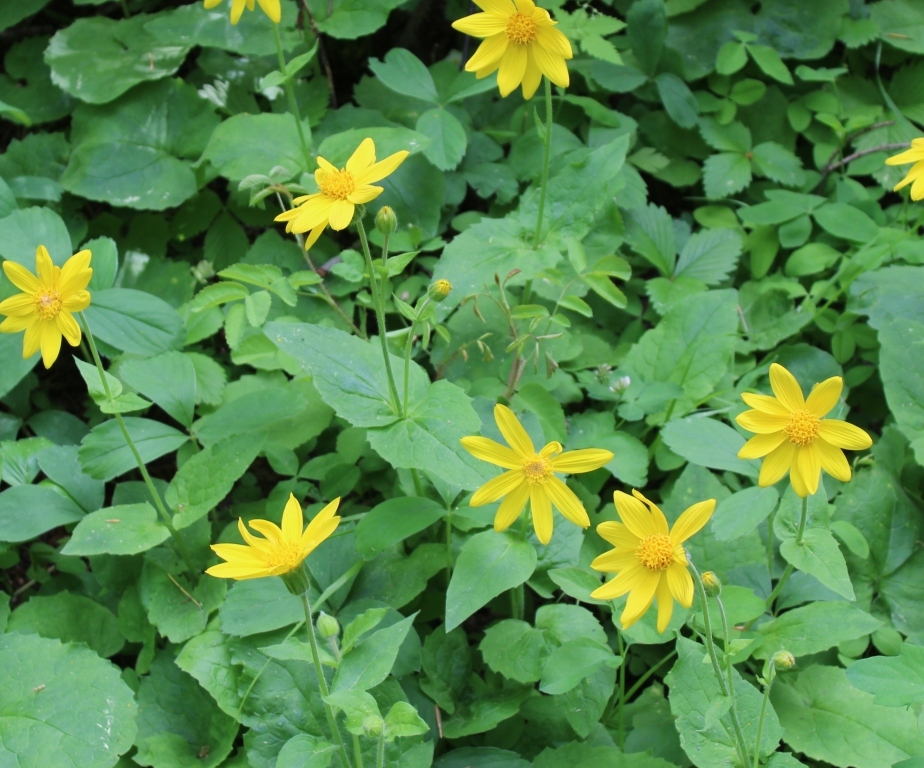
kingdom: Plantae
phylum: Tracheophyta
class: Magnoliopsida
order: Asterales
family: Asteraceae
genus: Arnica
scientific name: Arnica cordifolia
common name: Heart-leaf arnica
